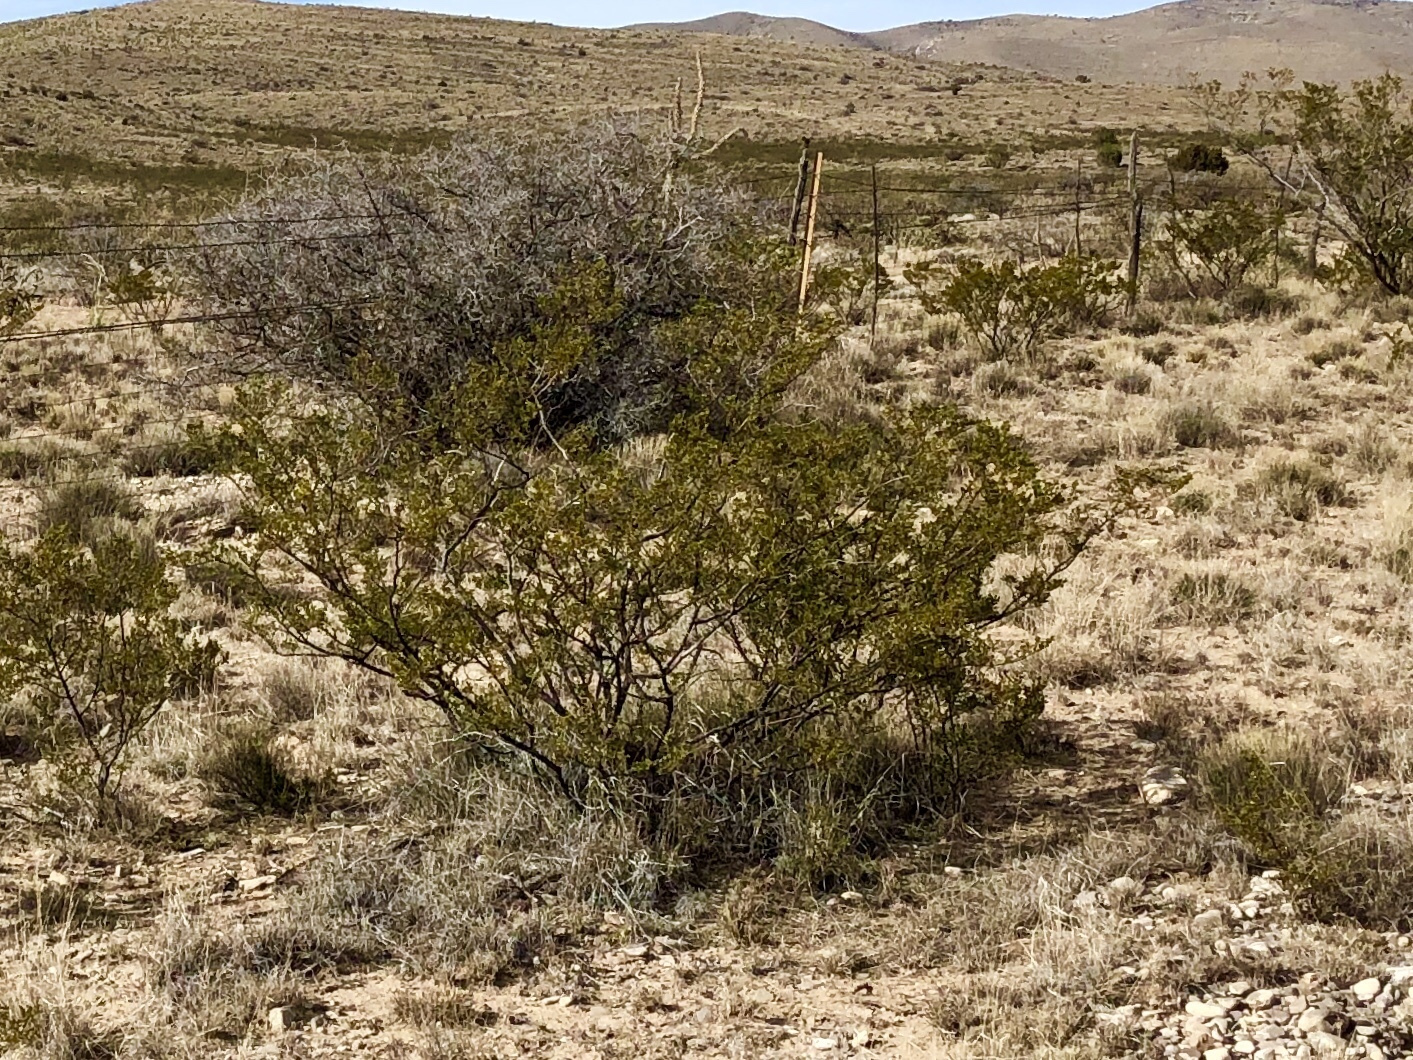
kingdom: Plantae
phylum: Tracheophyta
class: Magnoliopsida
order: Zygophyllales
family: Zygophyllaceae
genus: Larrea
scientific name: Larrea tridentata
